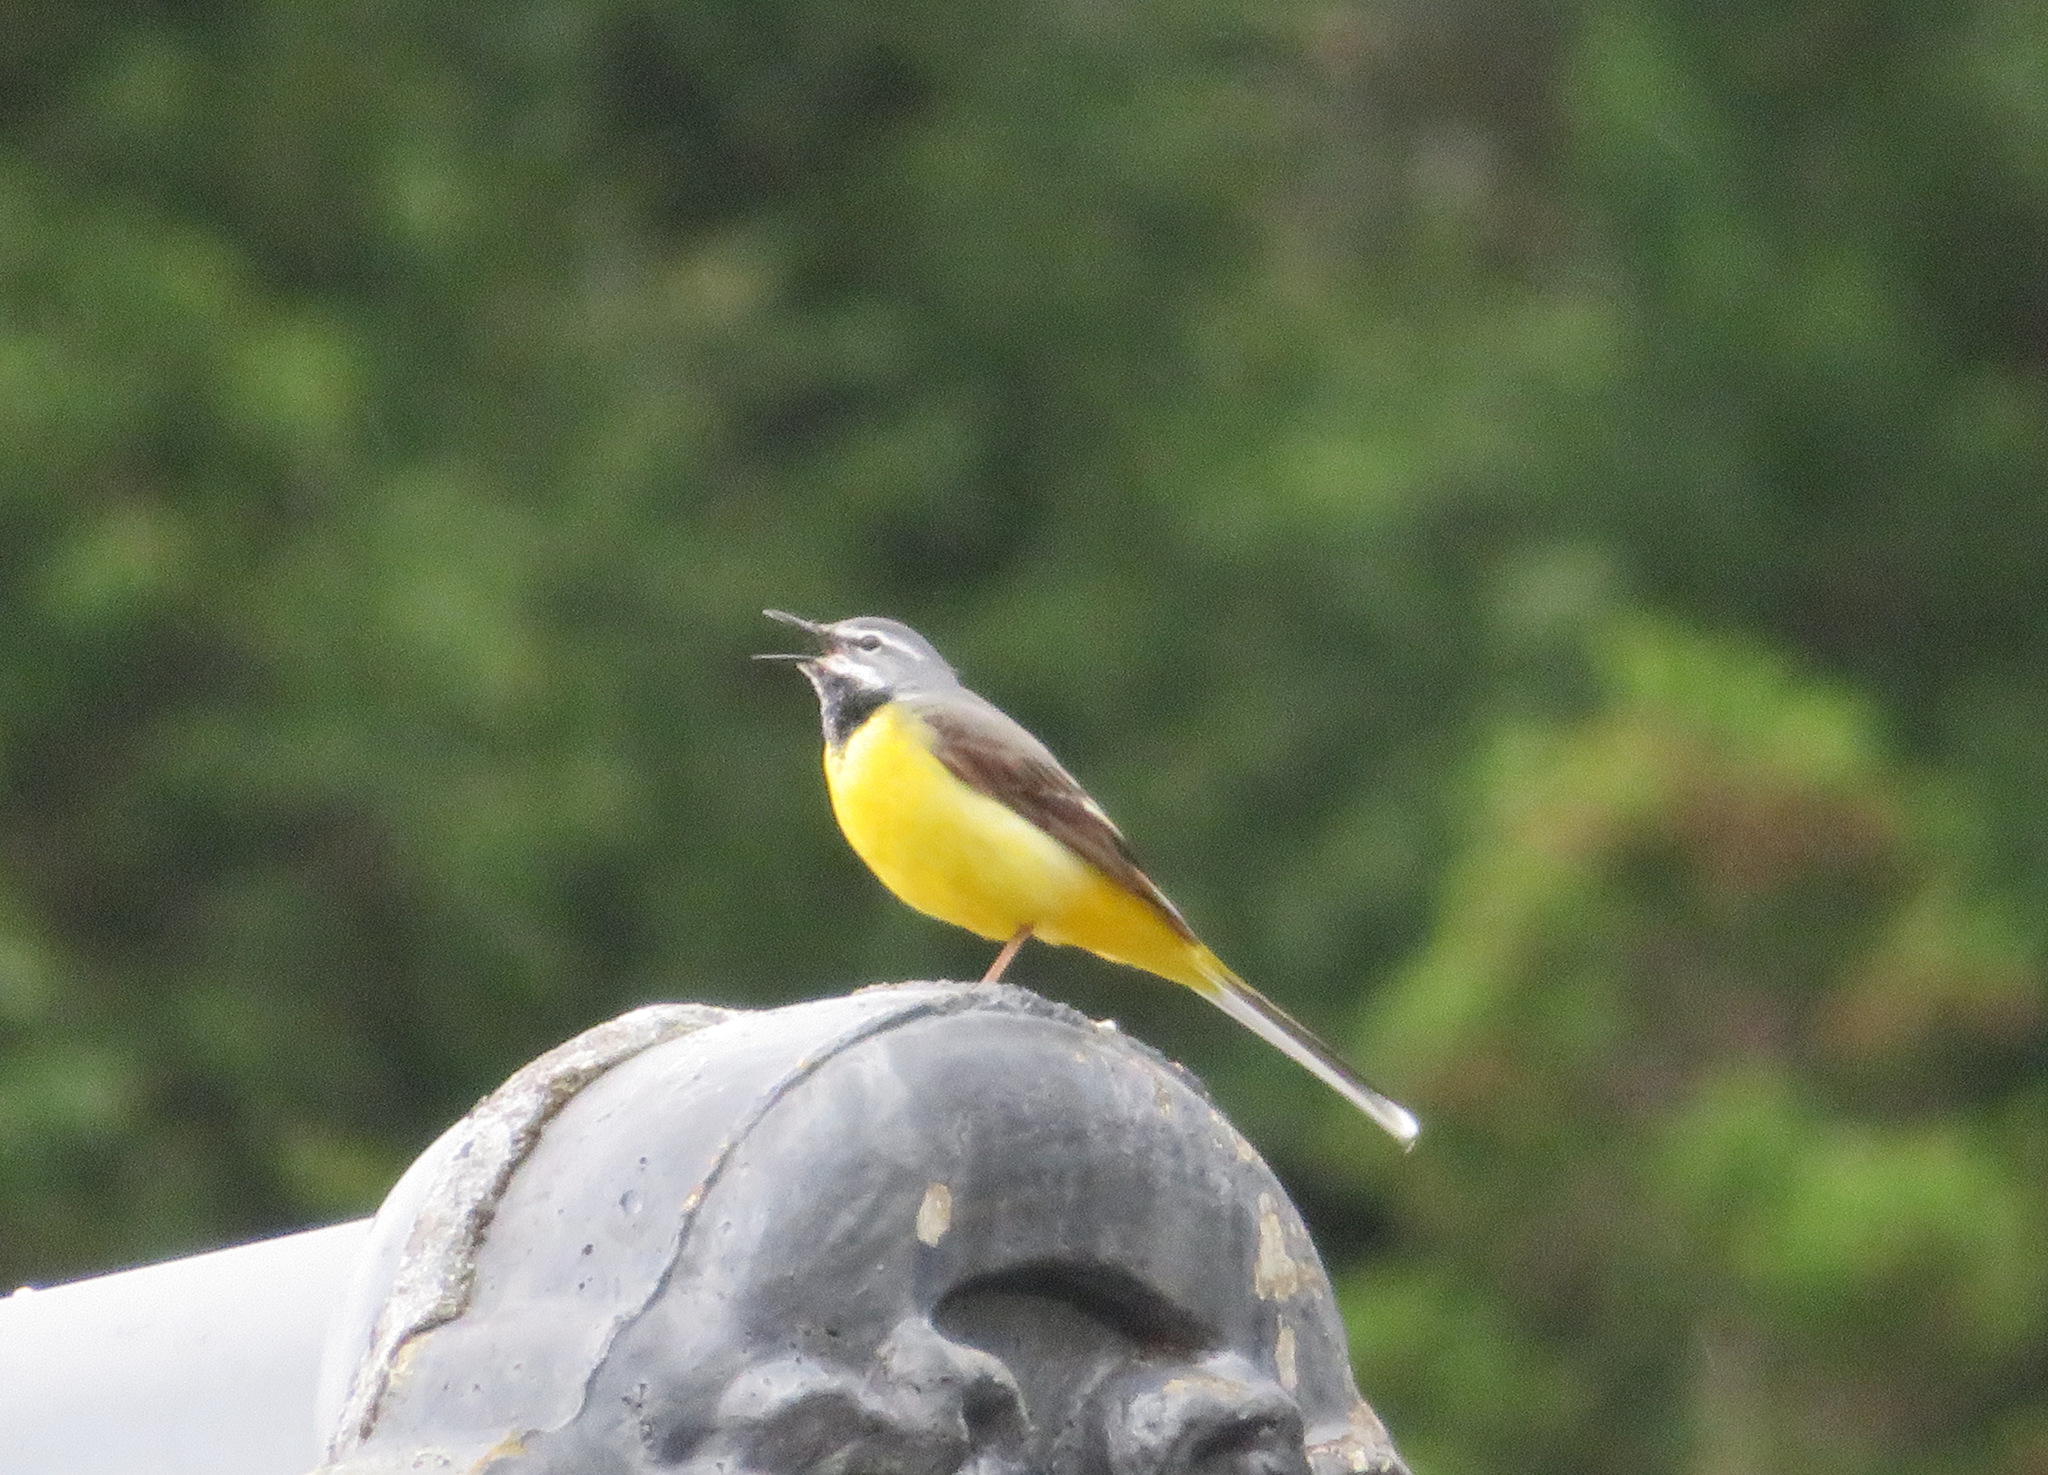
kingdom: Animalia
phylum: Chordata
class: Aves
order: Passeriformes
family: Motacillidae
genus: Motacilla
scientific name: Motacilla cinerea
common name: Grey wagtail
